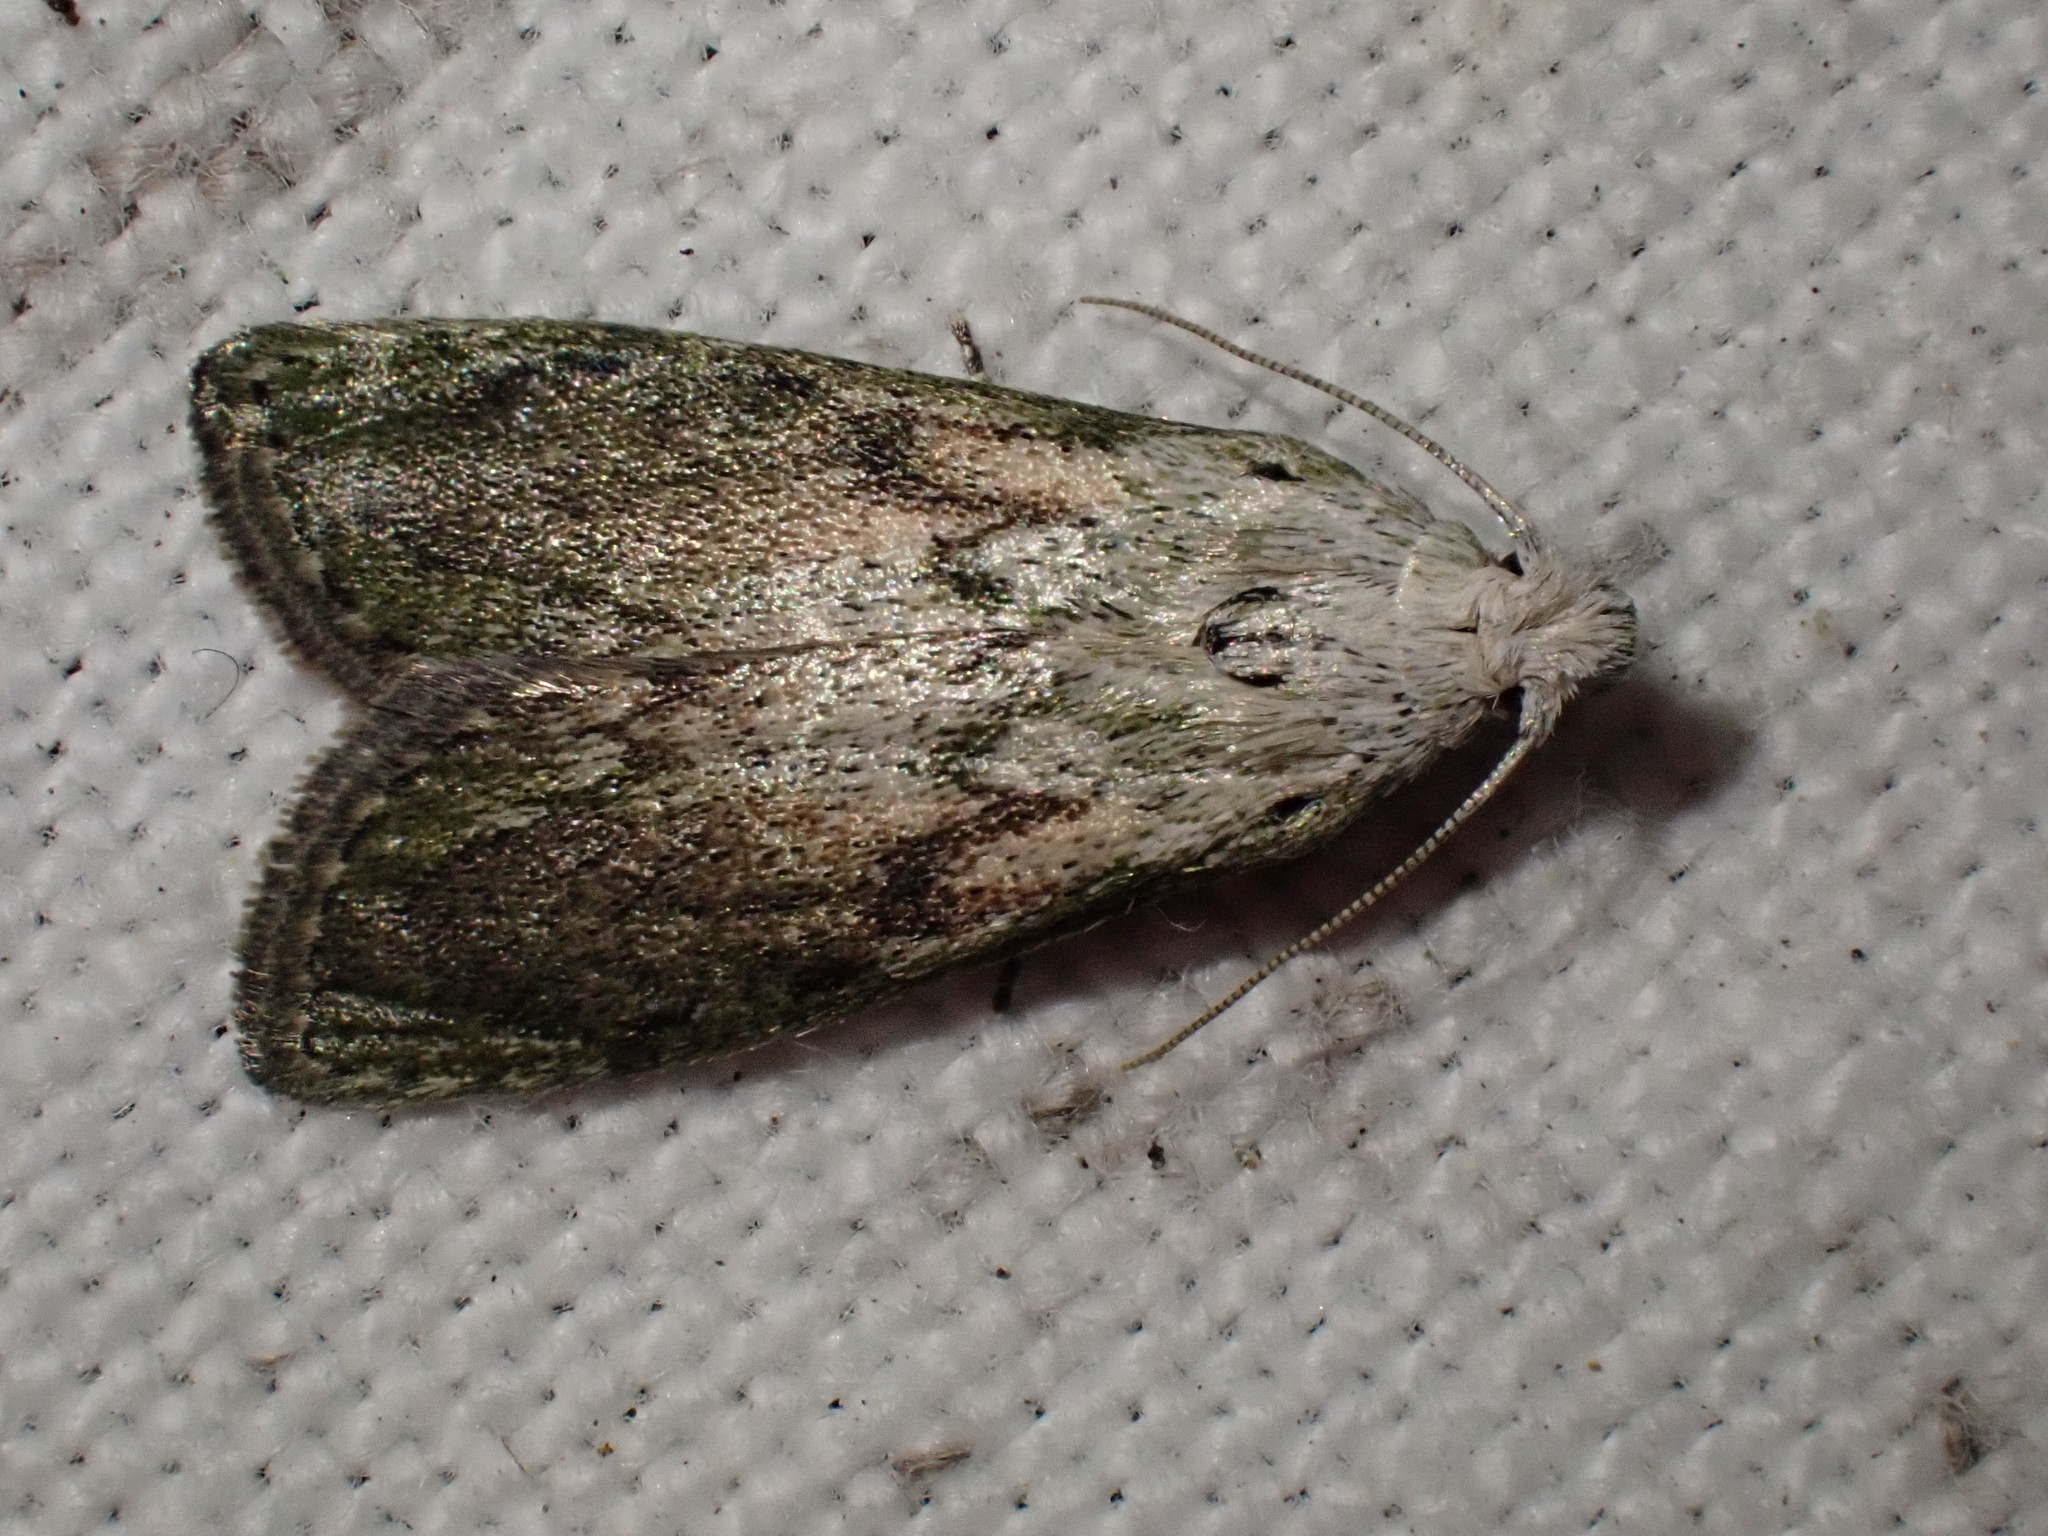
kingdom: Animalia
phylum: Arthropoda
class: Insecta
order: Lepidoptera
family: Pyralidae
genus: Aphomia
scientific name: Aphomia sociella
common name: Bee moth
